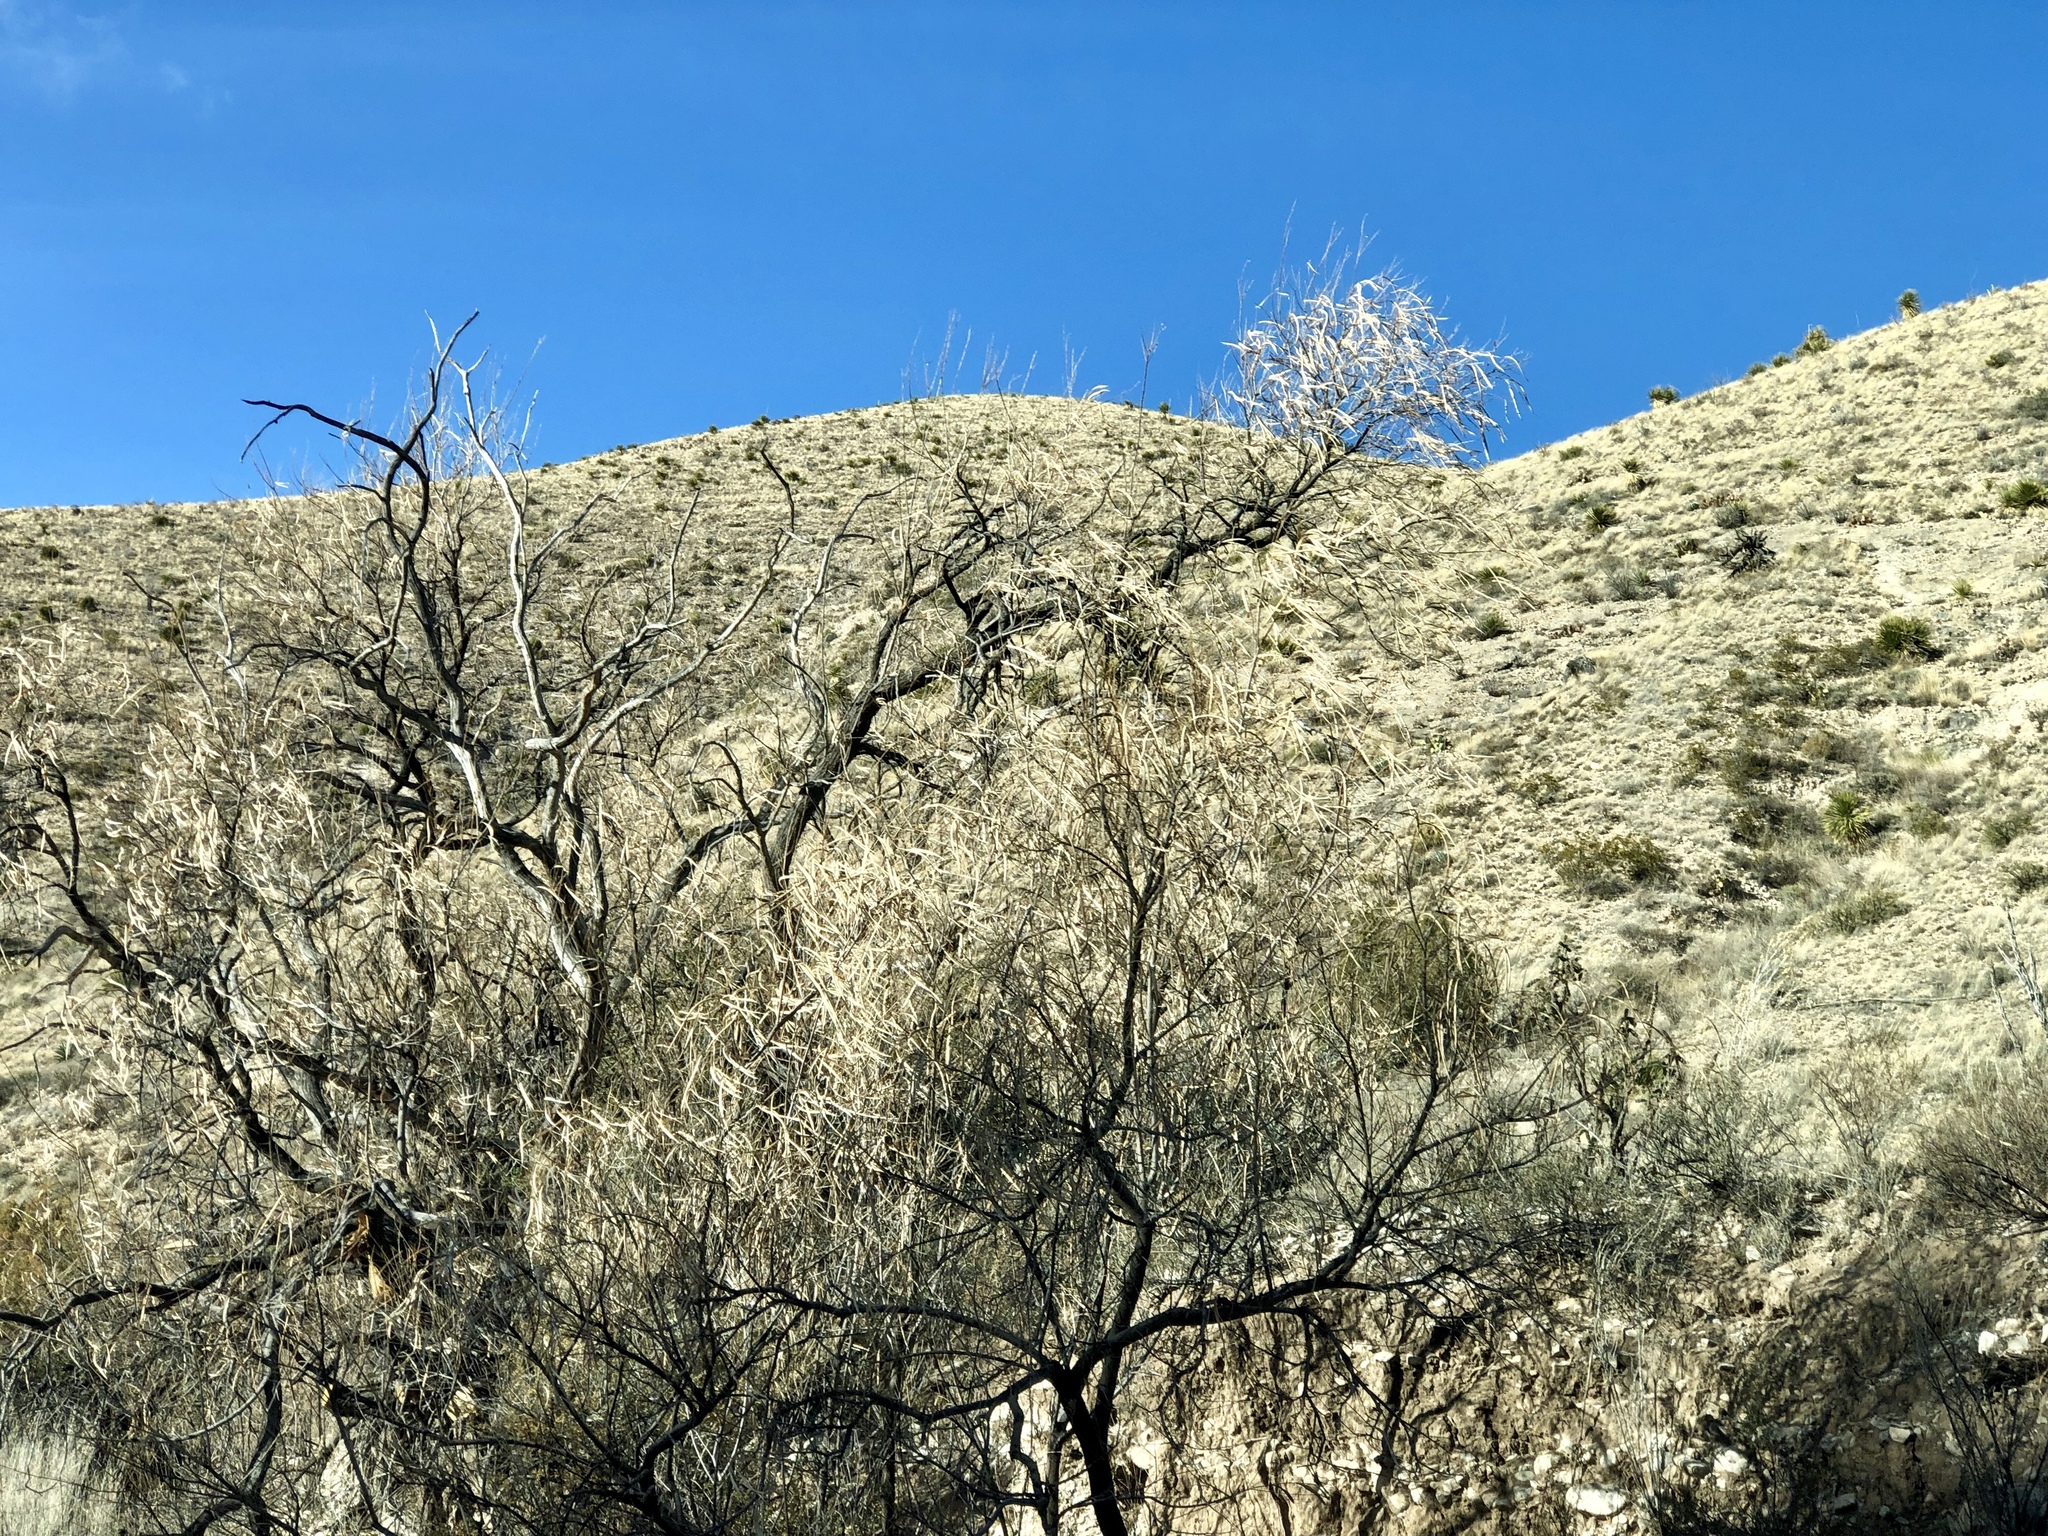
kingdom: Plantae
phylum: Tracheophyta
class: Magnoliopsida
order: Lamiales
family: Bignoniaceae
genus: Chilopsis
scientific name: Chilopsis linearis
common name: Desert-willow
